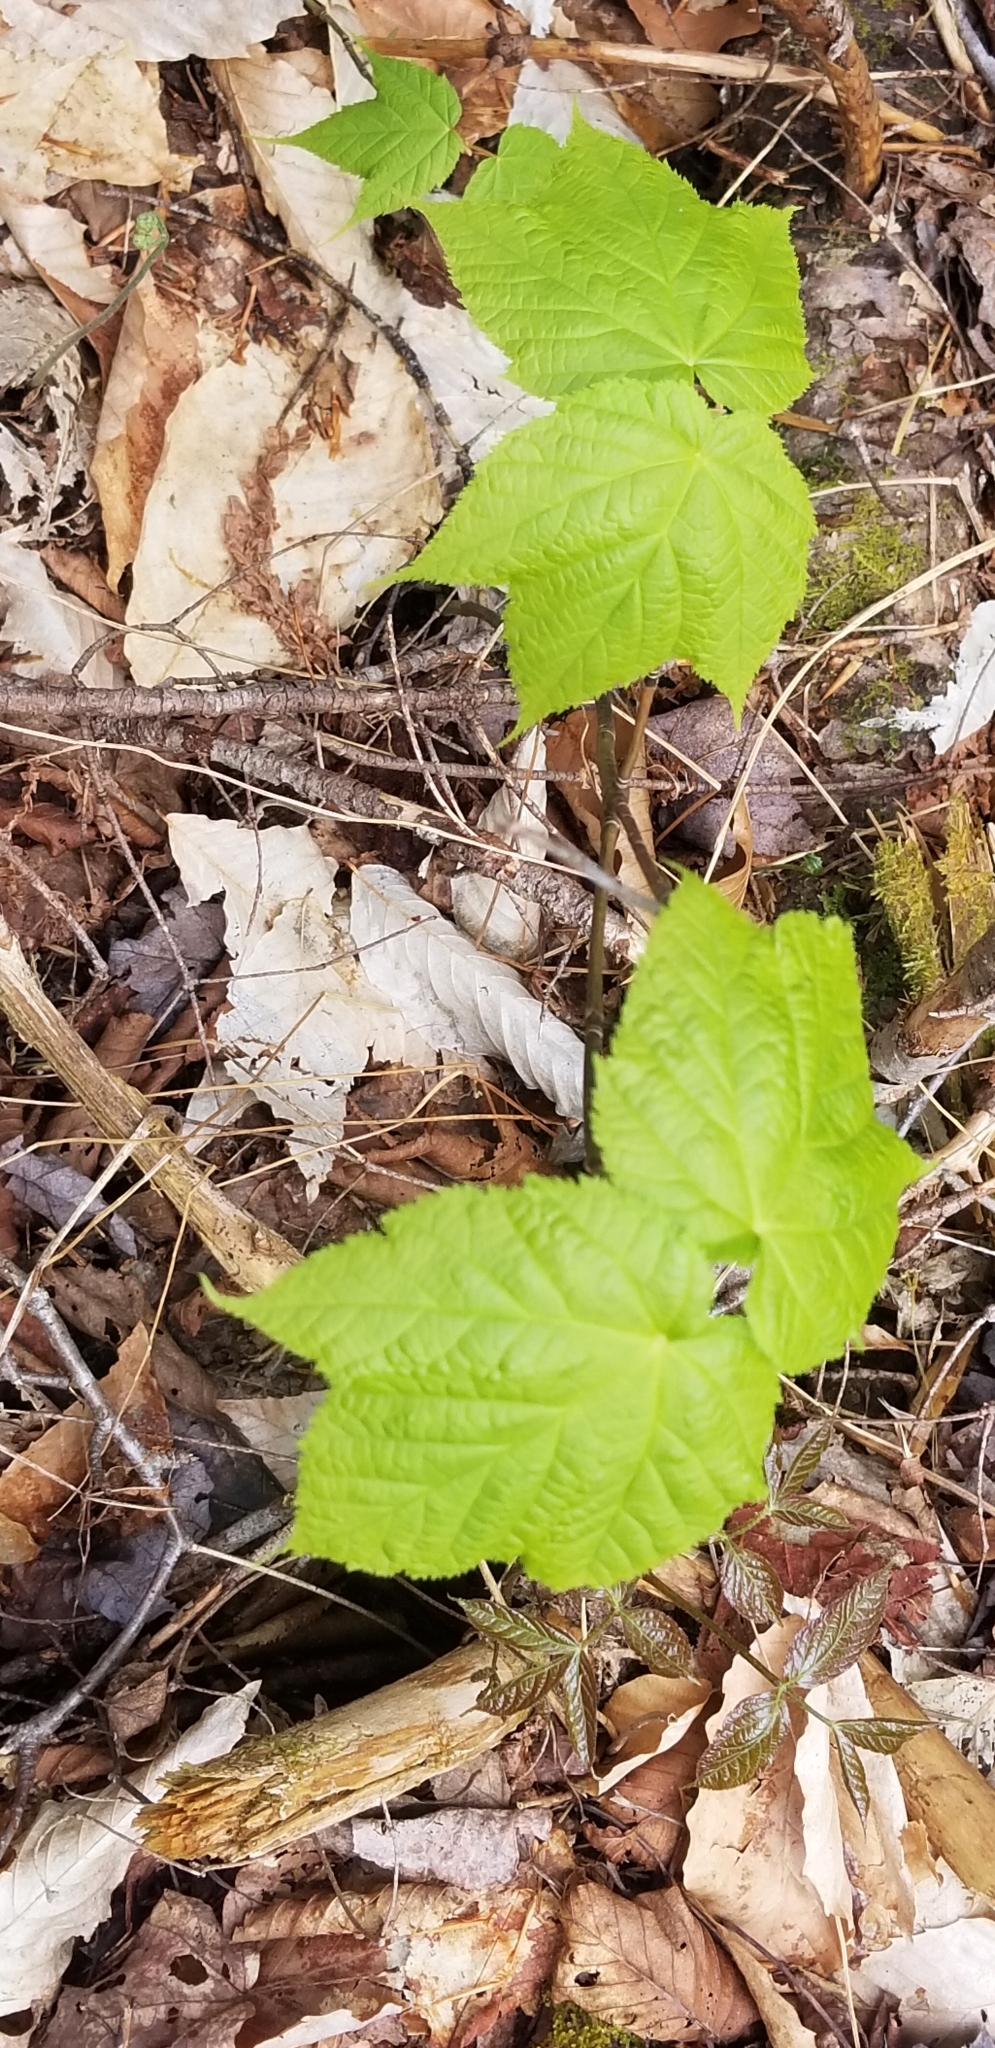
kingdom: Plantae
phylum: Tracheophyta
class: Magnoliopsida
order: Sapindales
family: Sapindaceae
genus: Acer
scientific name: Acer pensylvanicum
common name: Moosewood
